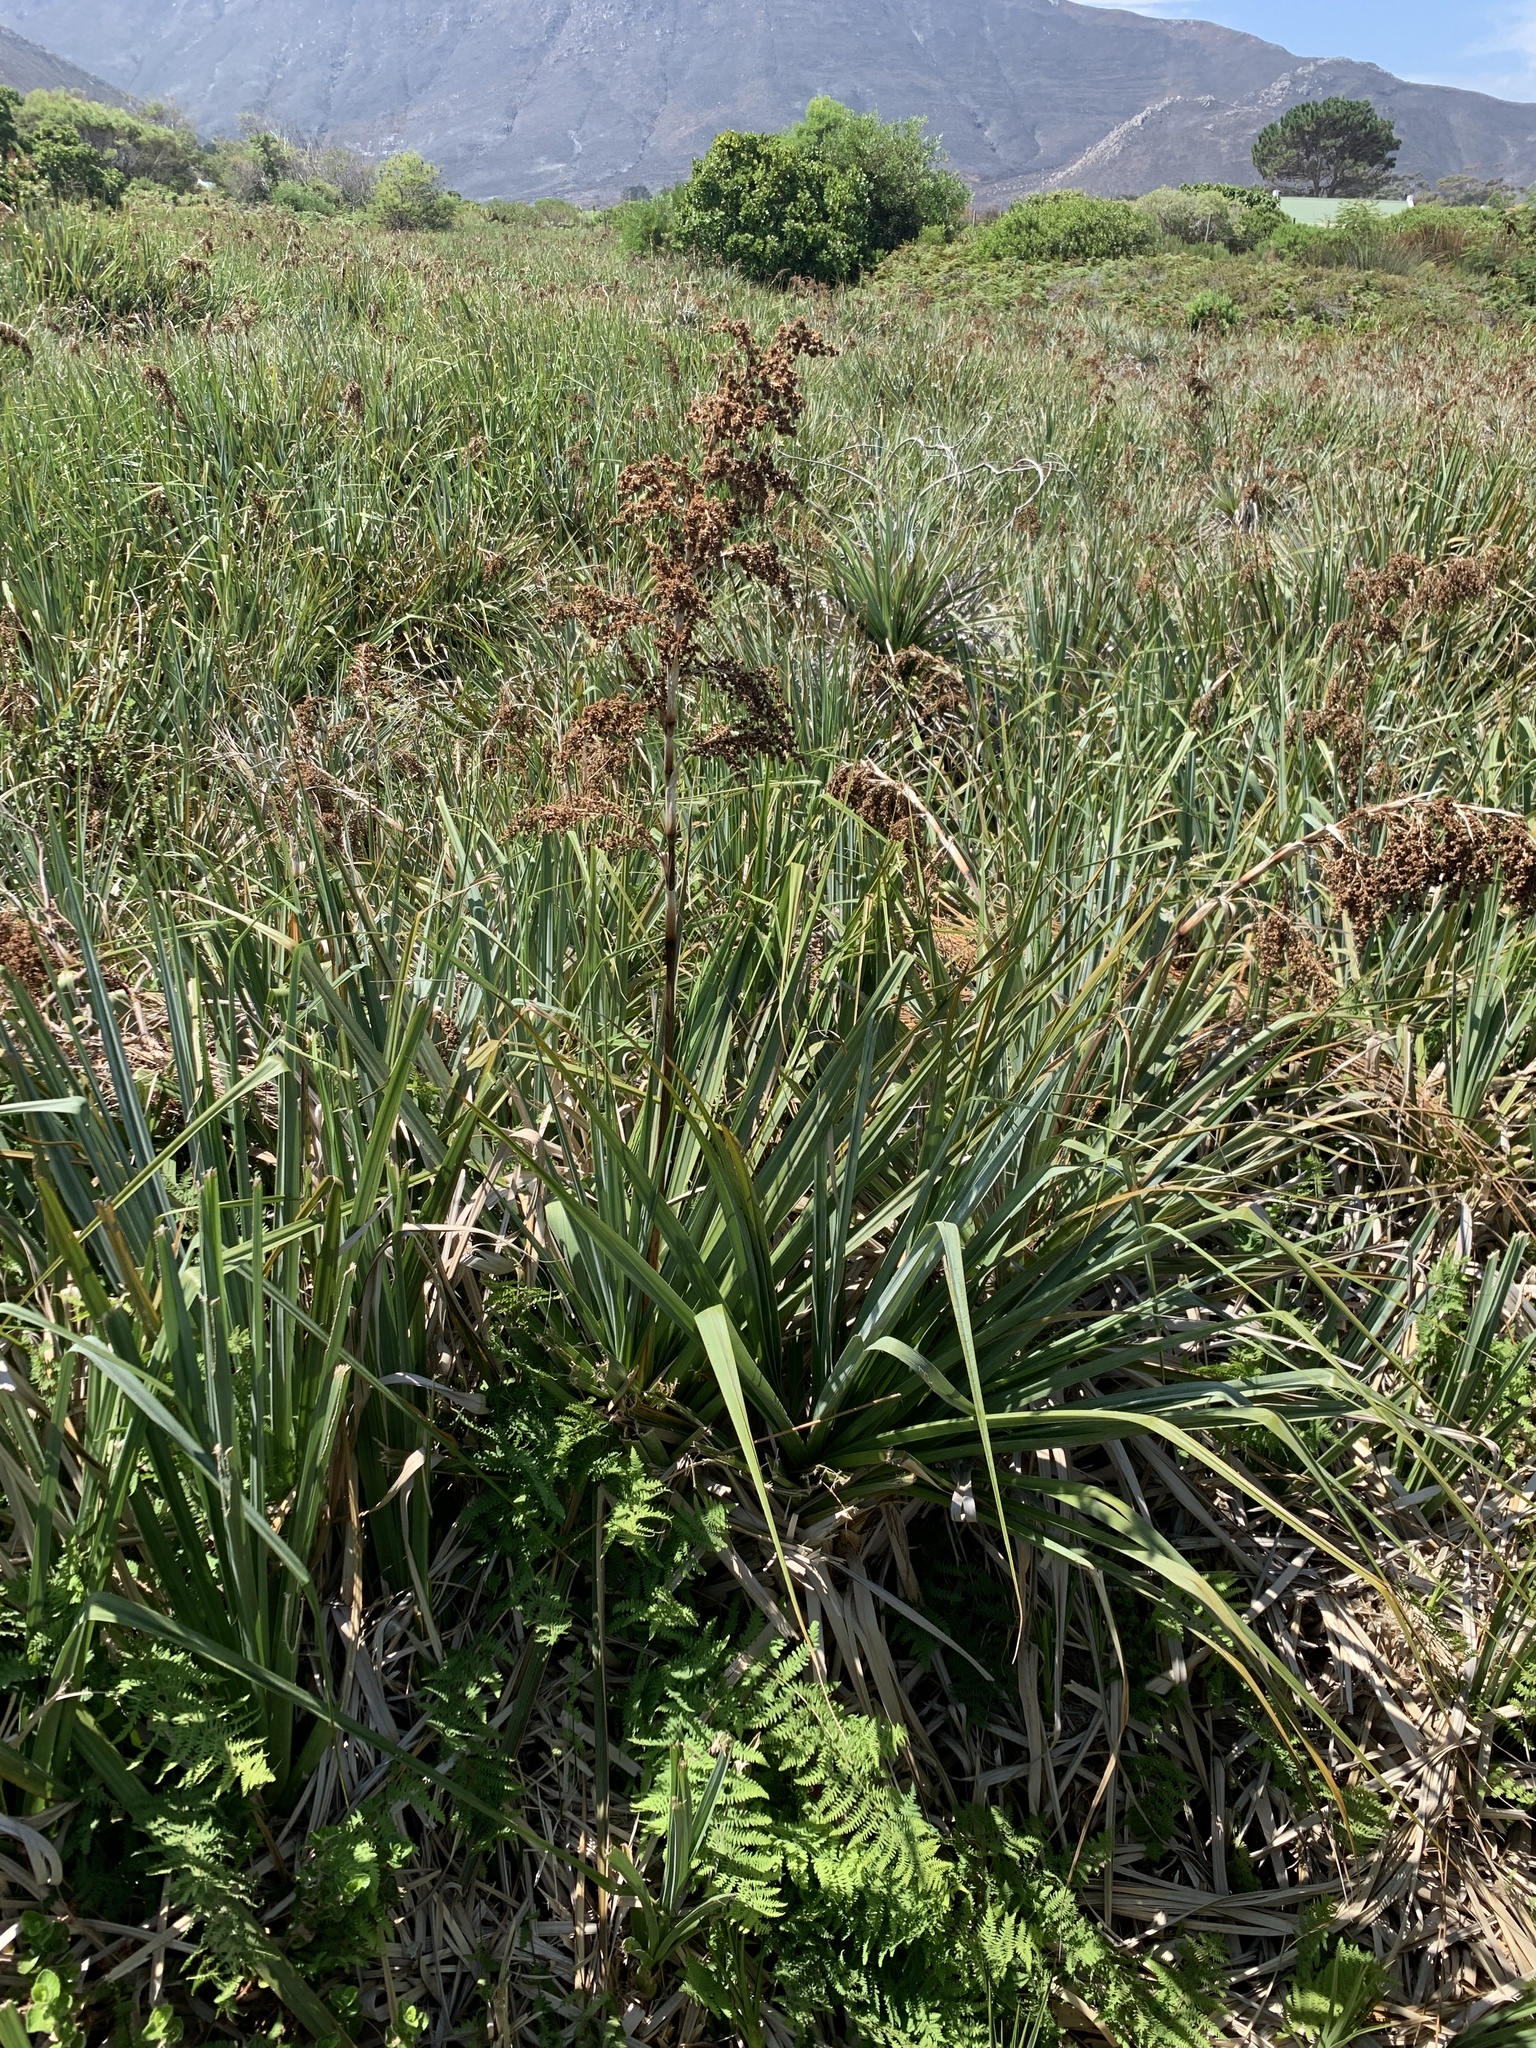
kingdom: Plantae
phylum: Tracheophyta
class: Liliopsida
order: Poales
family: Thurniaceae
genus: Prionium
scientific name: Prionium serratum
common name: Palmiet
